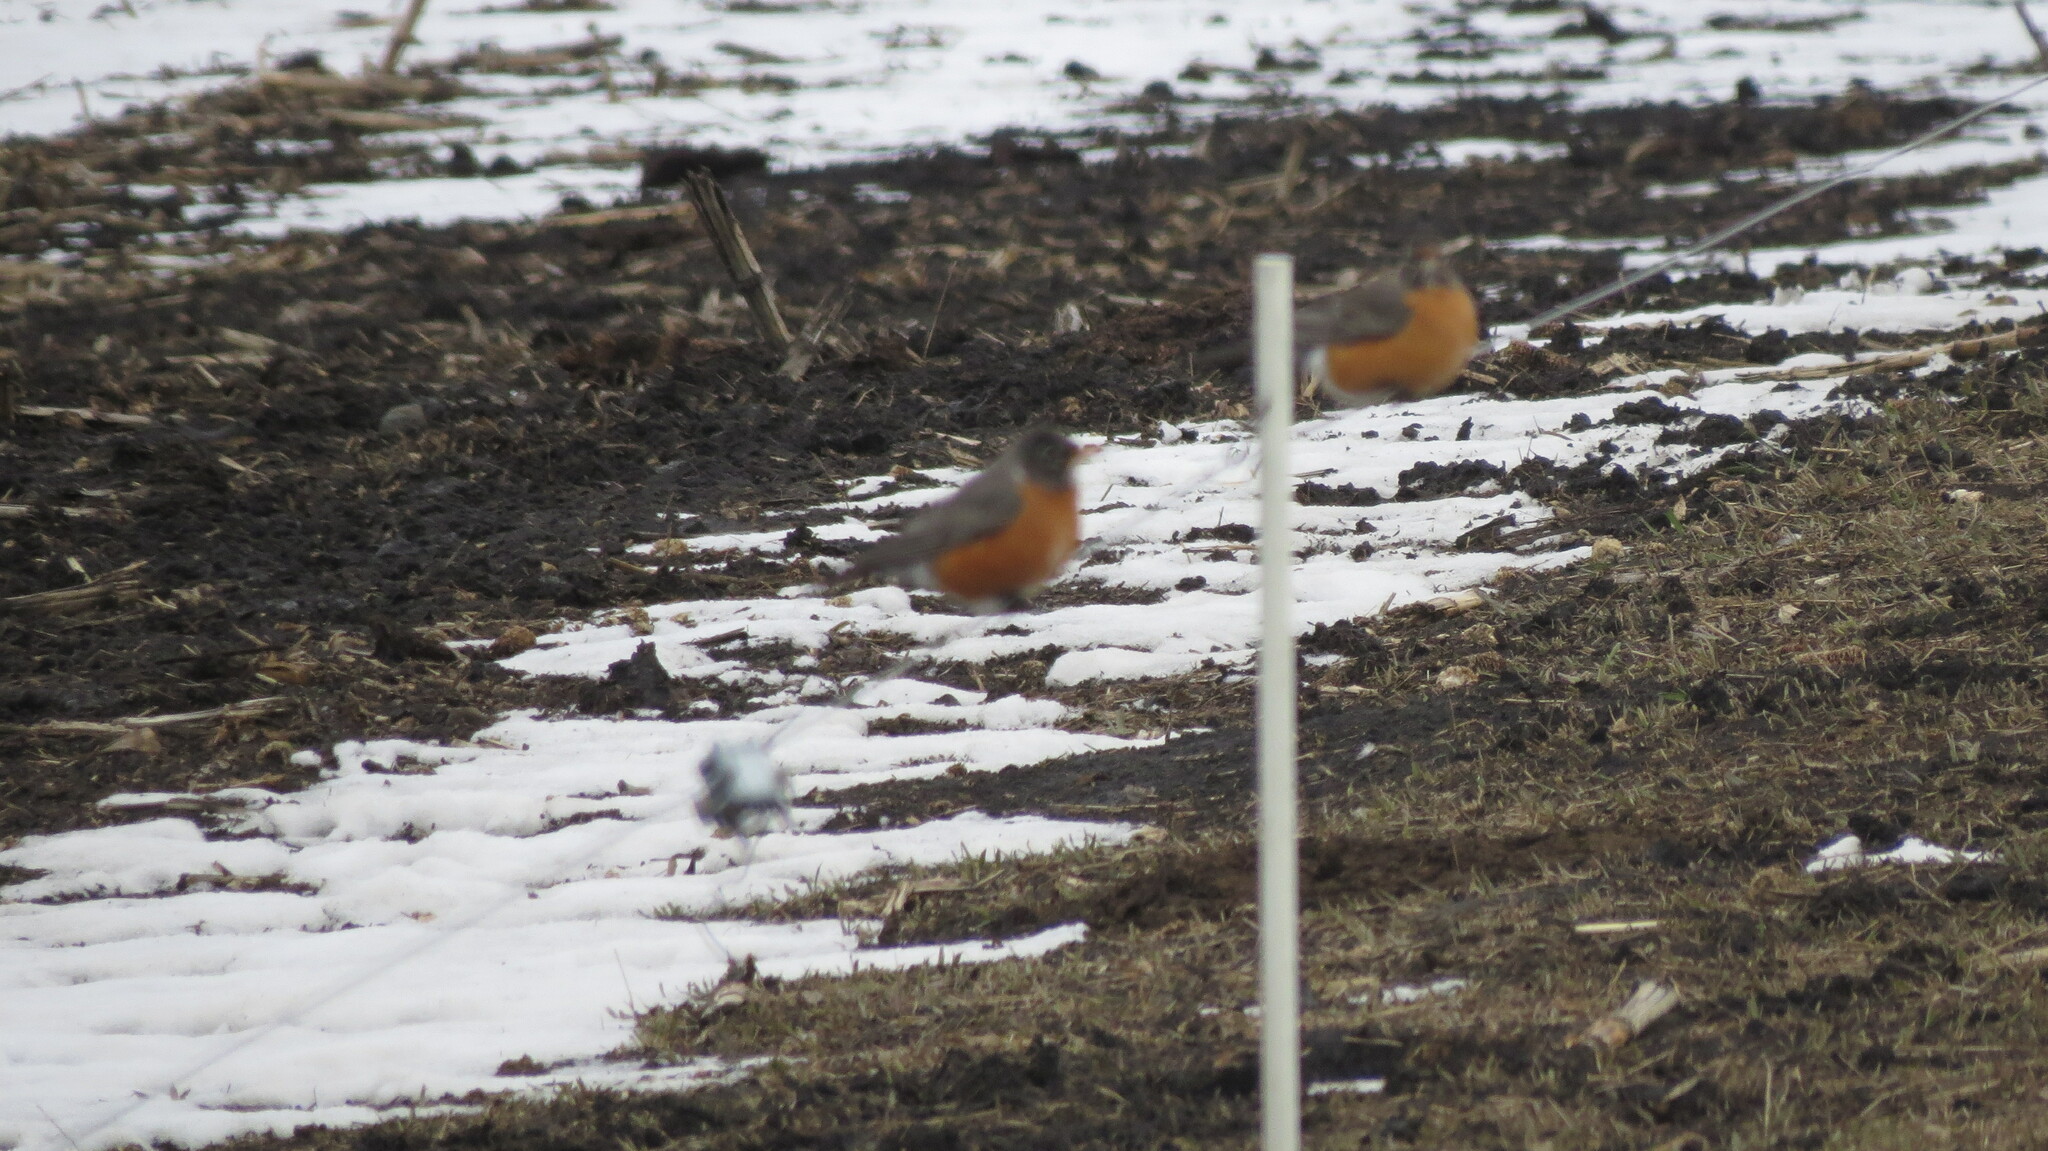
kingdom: Animalia
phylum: Chordata
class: Aves
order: Passeriformes
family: Turdidae
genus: Turdus
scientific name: Turdus migratorius
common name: American robin
